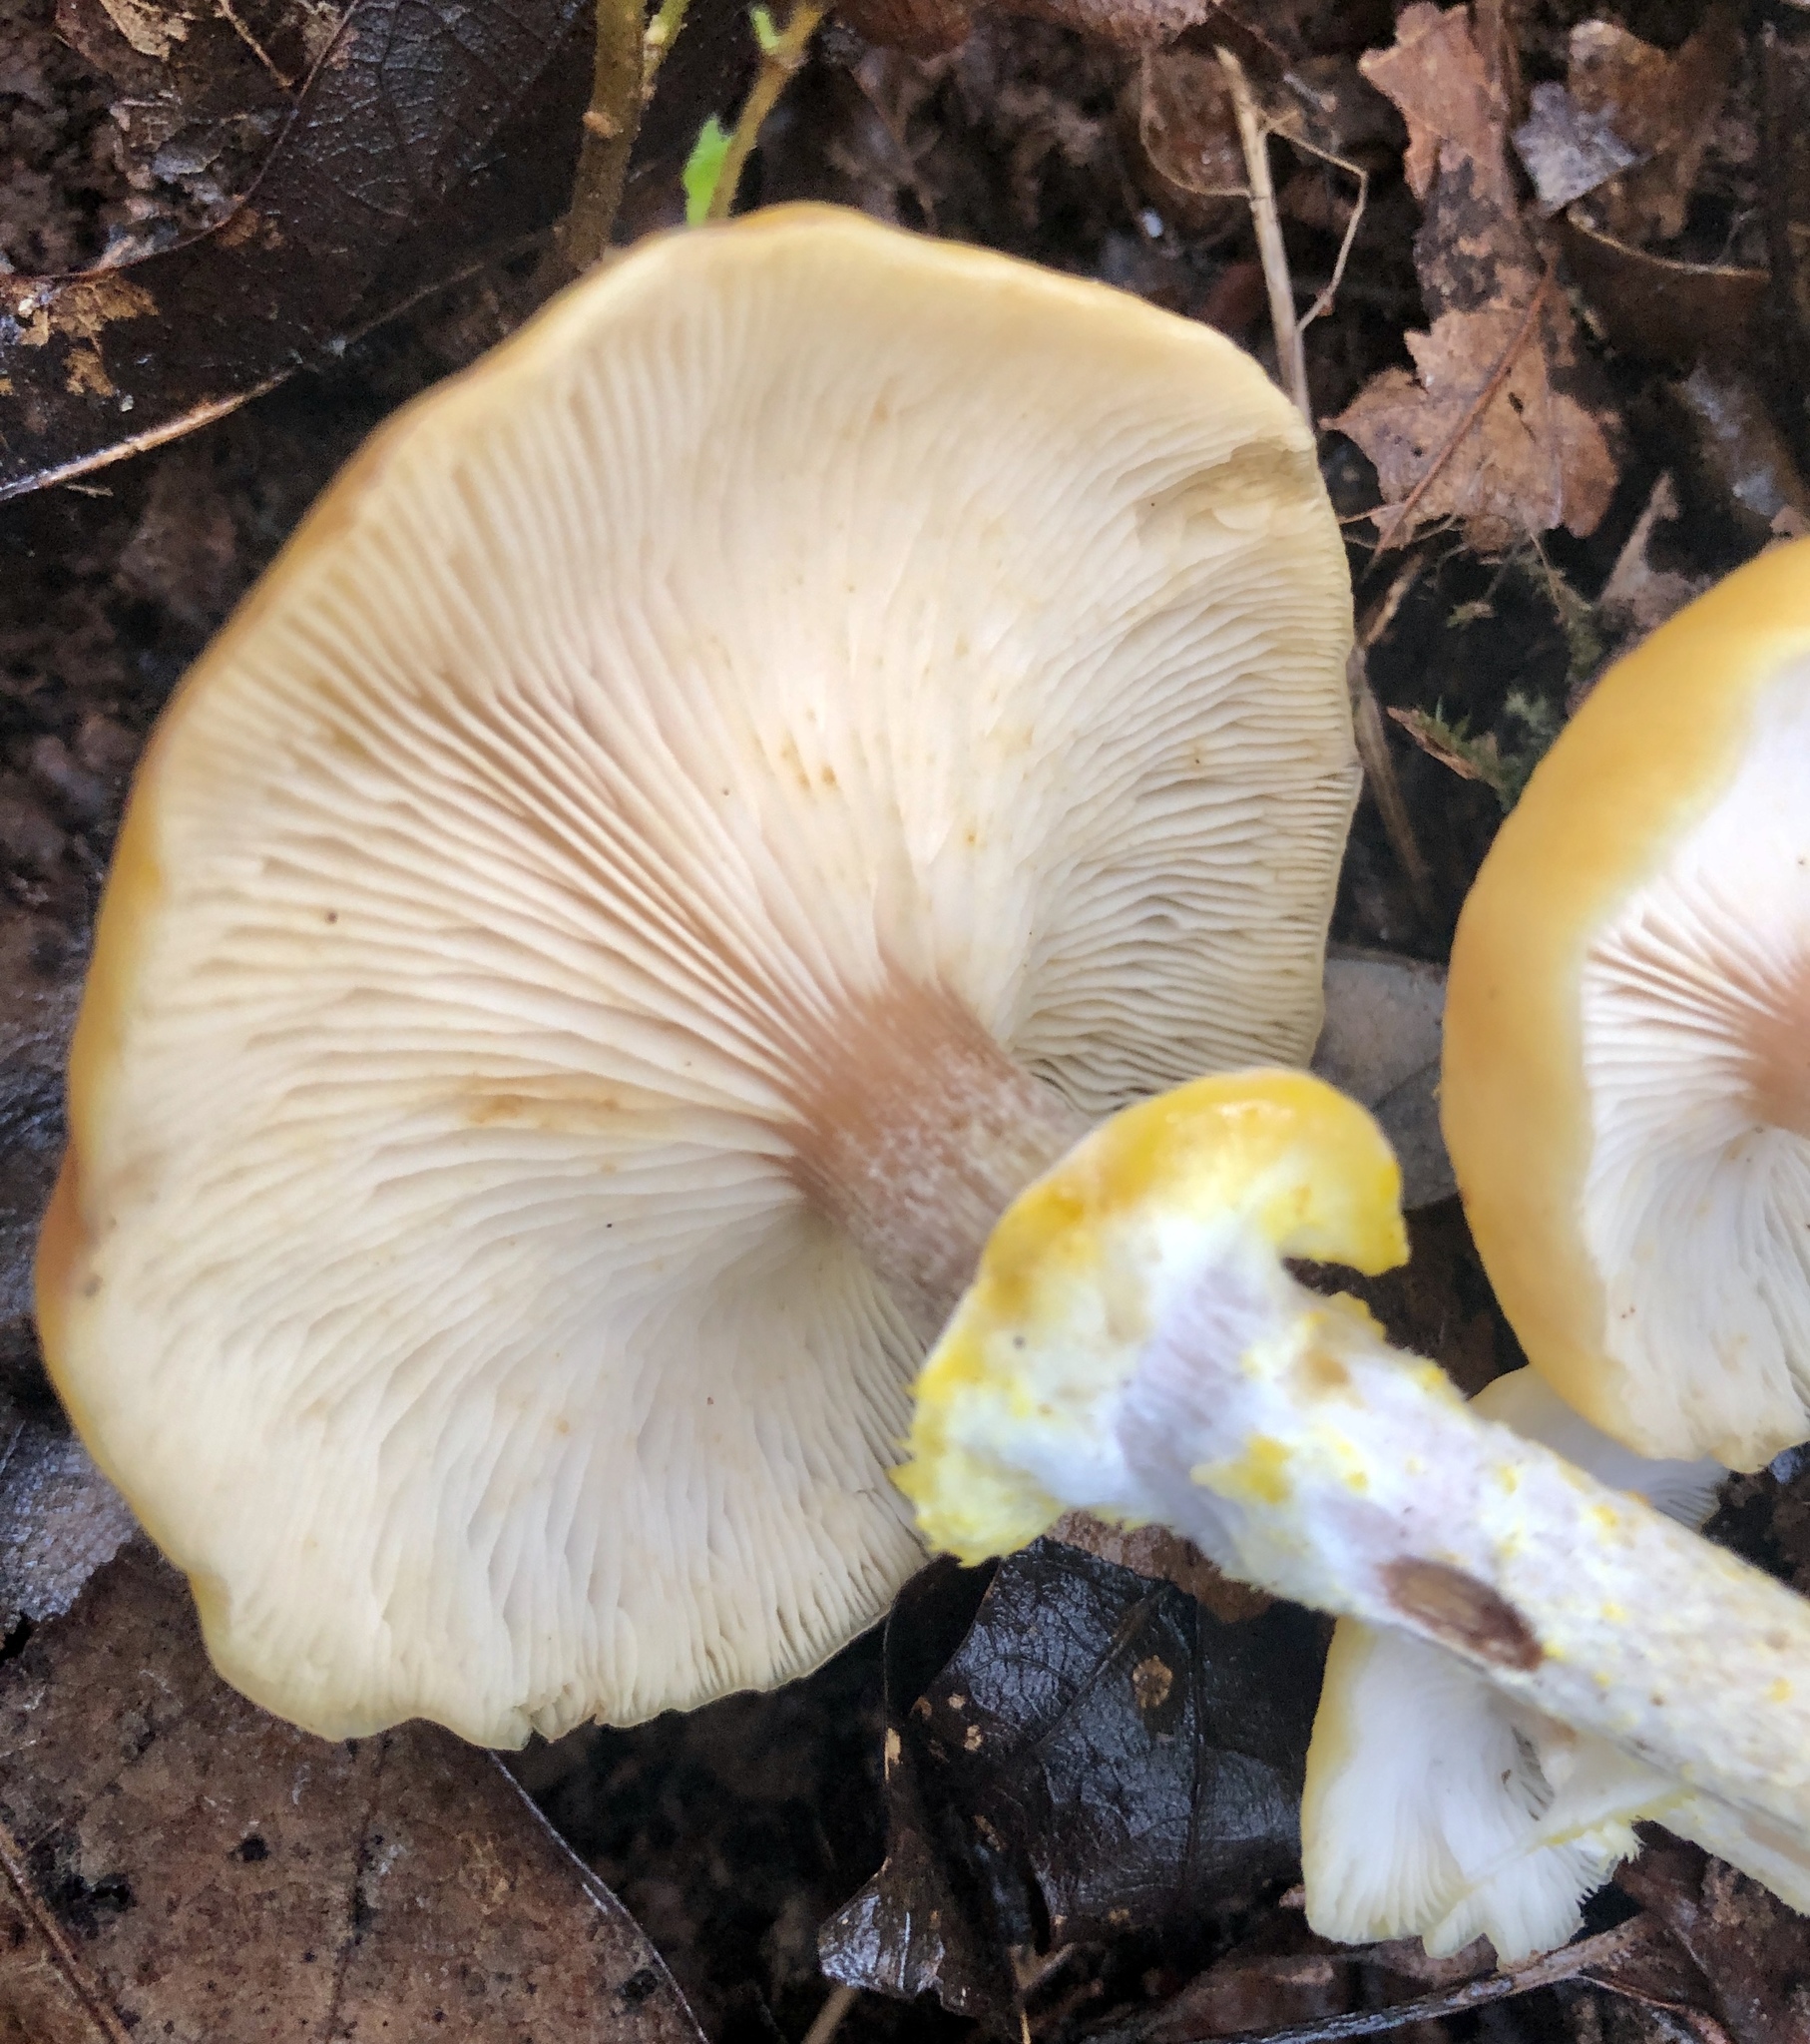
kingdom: Fungi
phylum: Basidiomycota
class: Agaricomycetes
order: Agaricales
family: Physalacriaceae
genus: Armillaria
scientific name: Armillaria mellea
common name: Honey fungus
